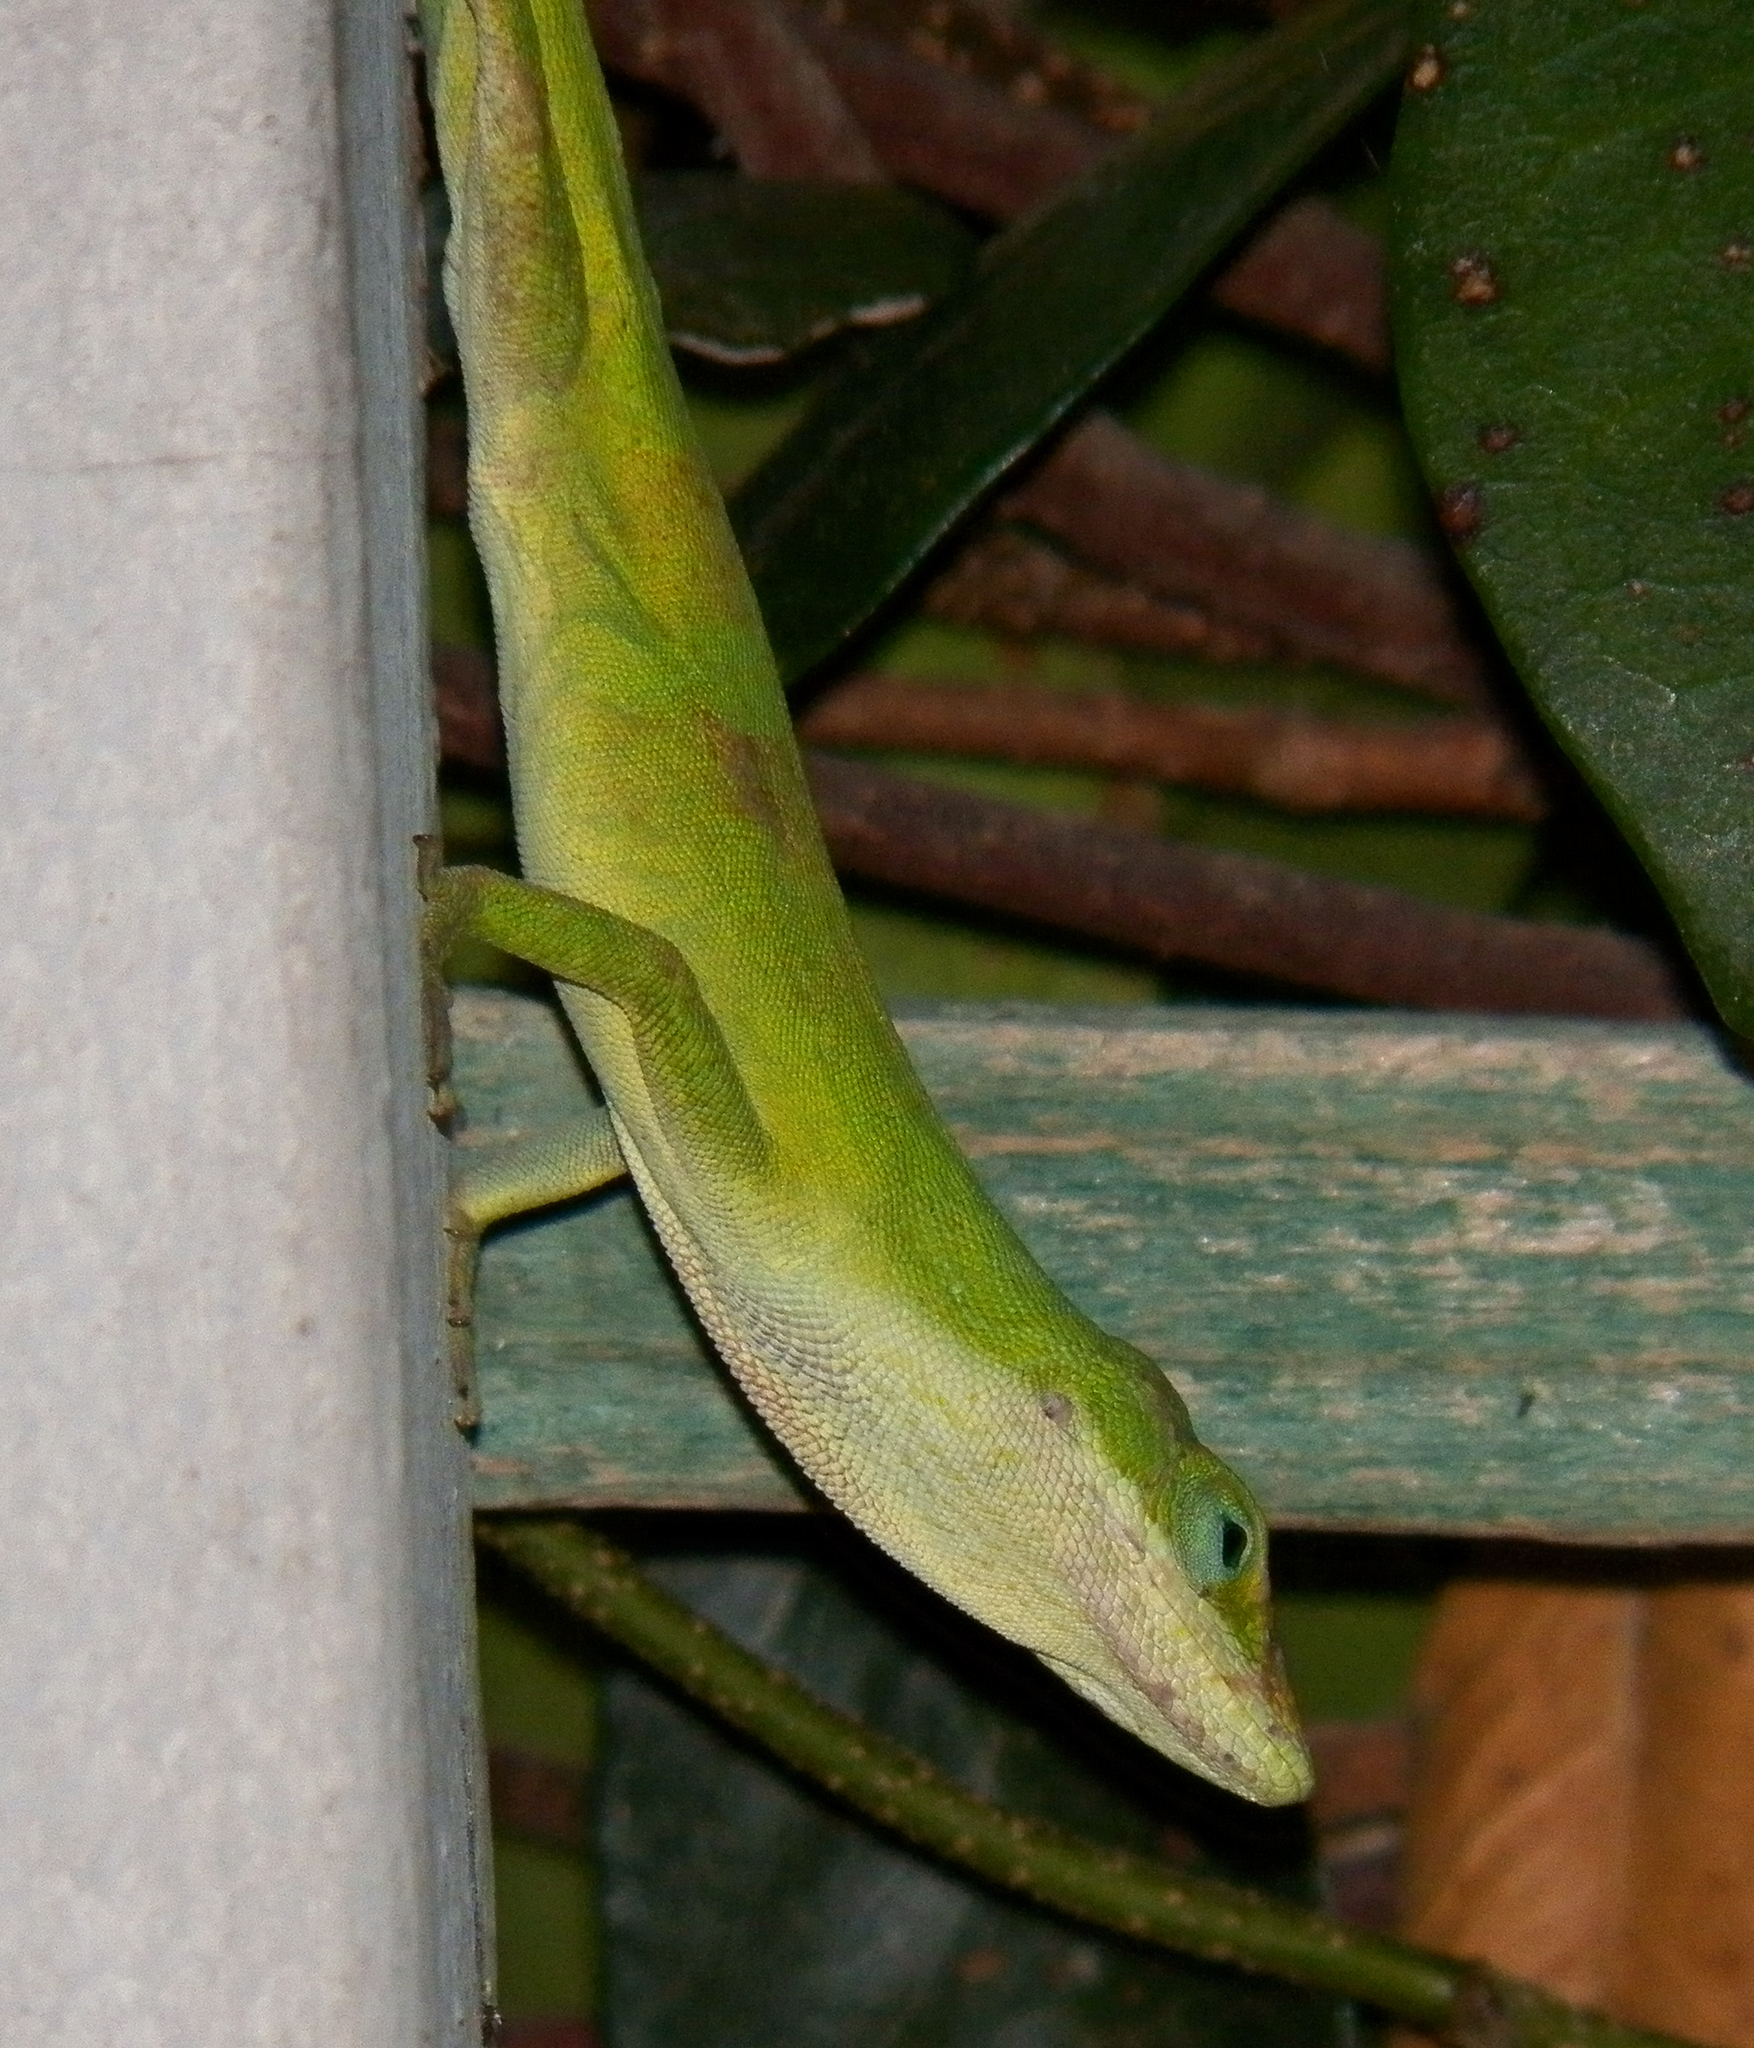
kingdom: Animalia
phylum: Chordata
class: Squamata
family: Dactyloidae
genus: Anolis
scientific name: Anolis carolinensis
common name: Green anole
